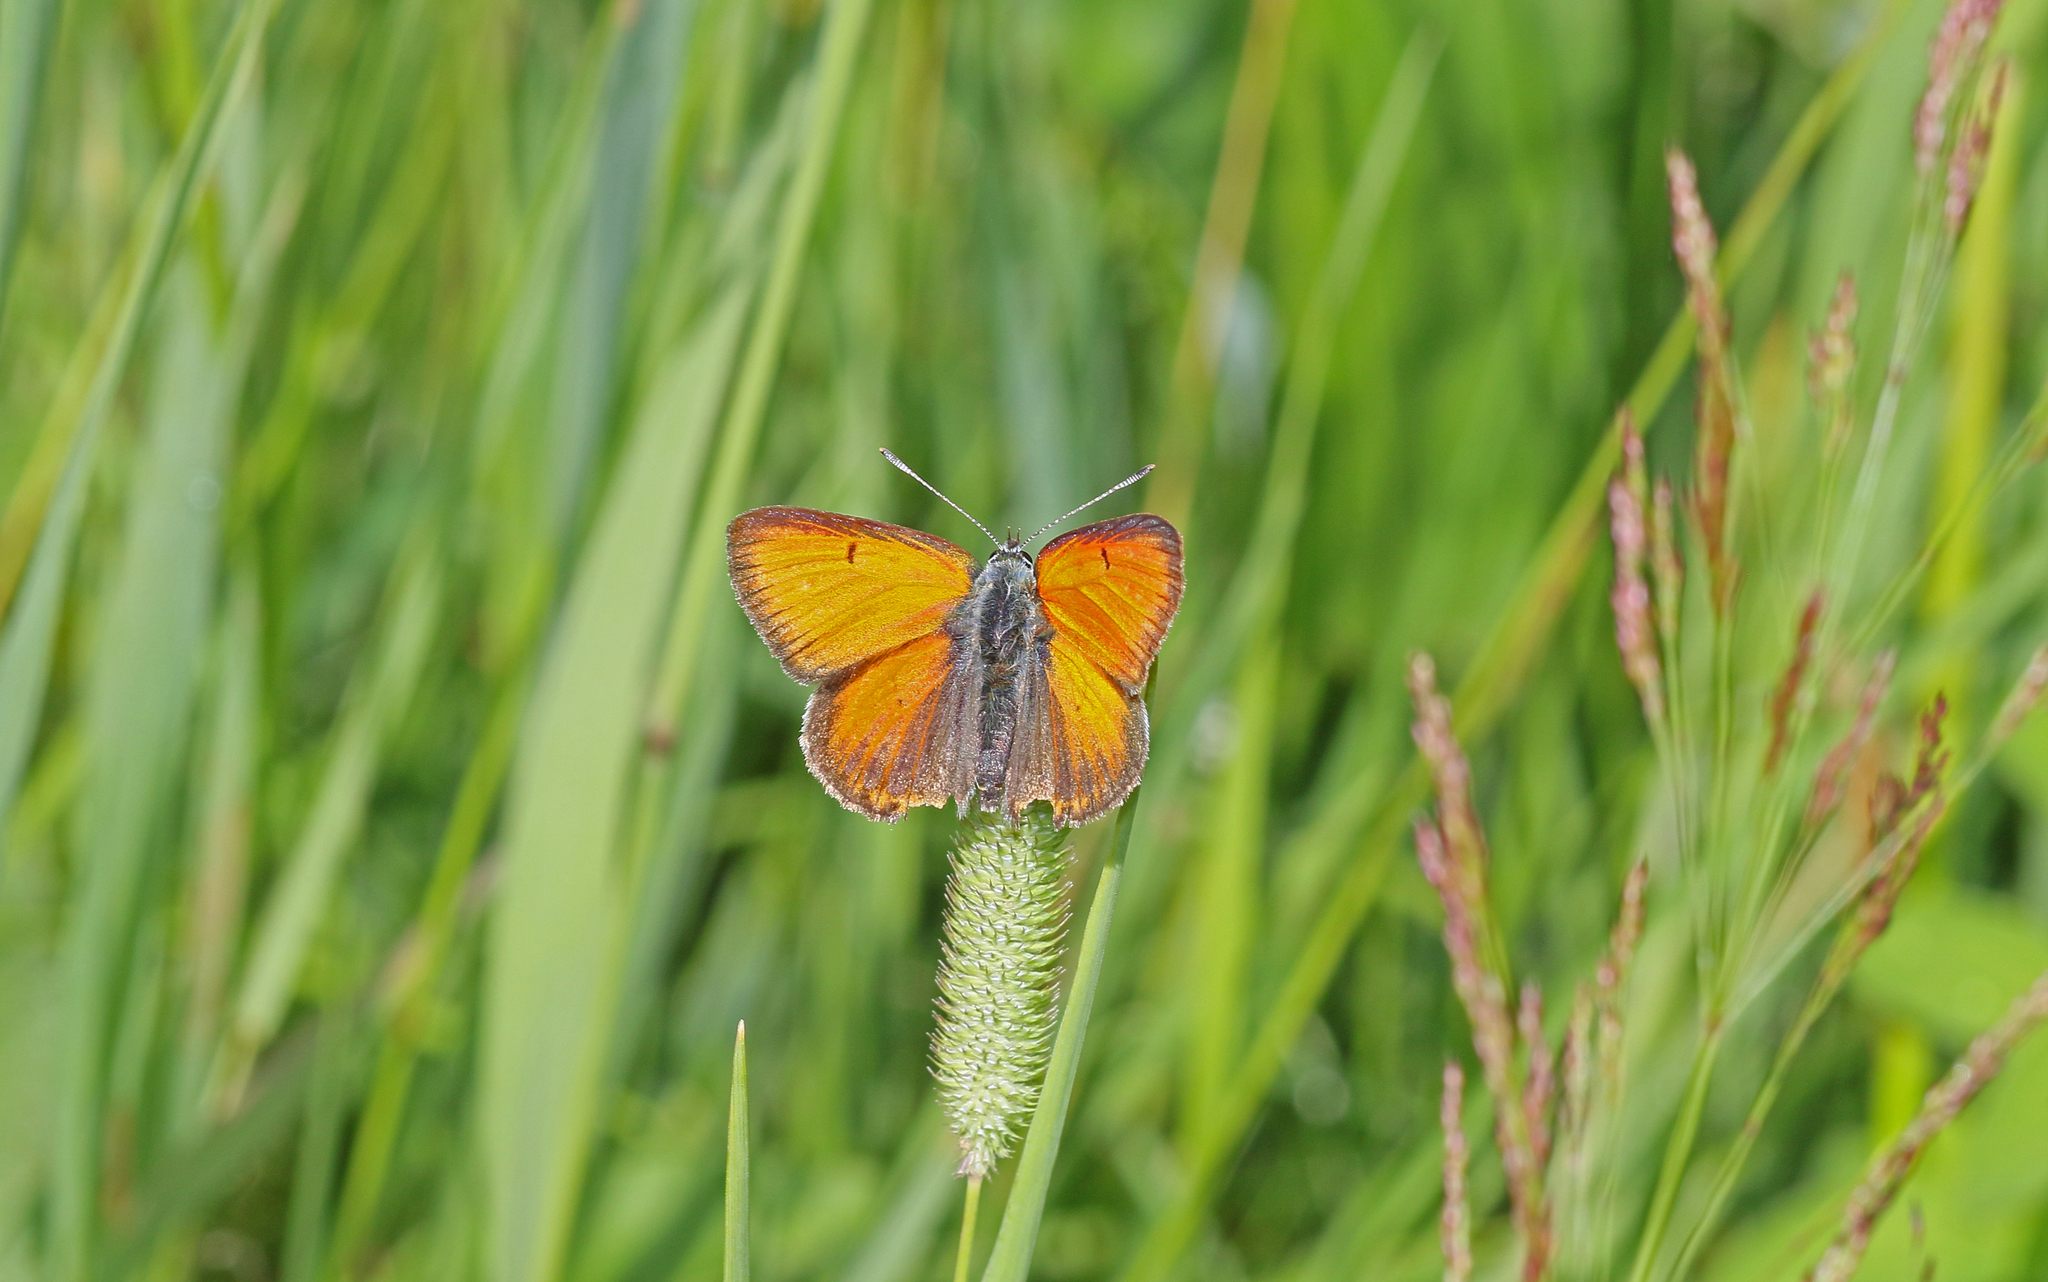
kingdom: Animalia
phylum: Arthropoda
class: Insecta
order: Lepidoptera
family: Lycaenidae
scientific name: Lycaenidae
